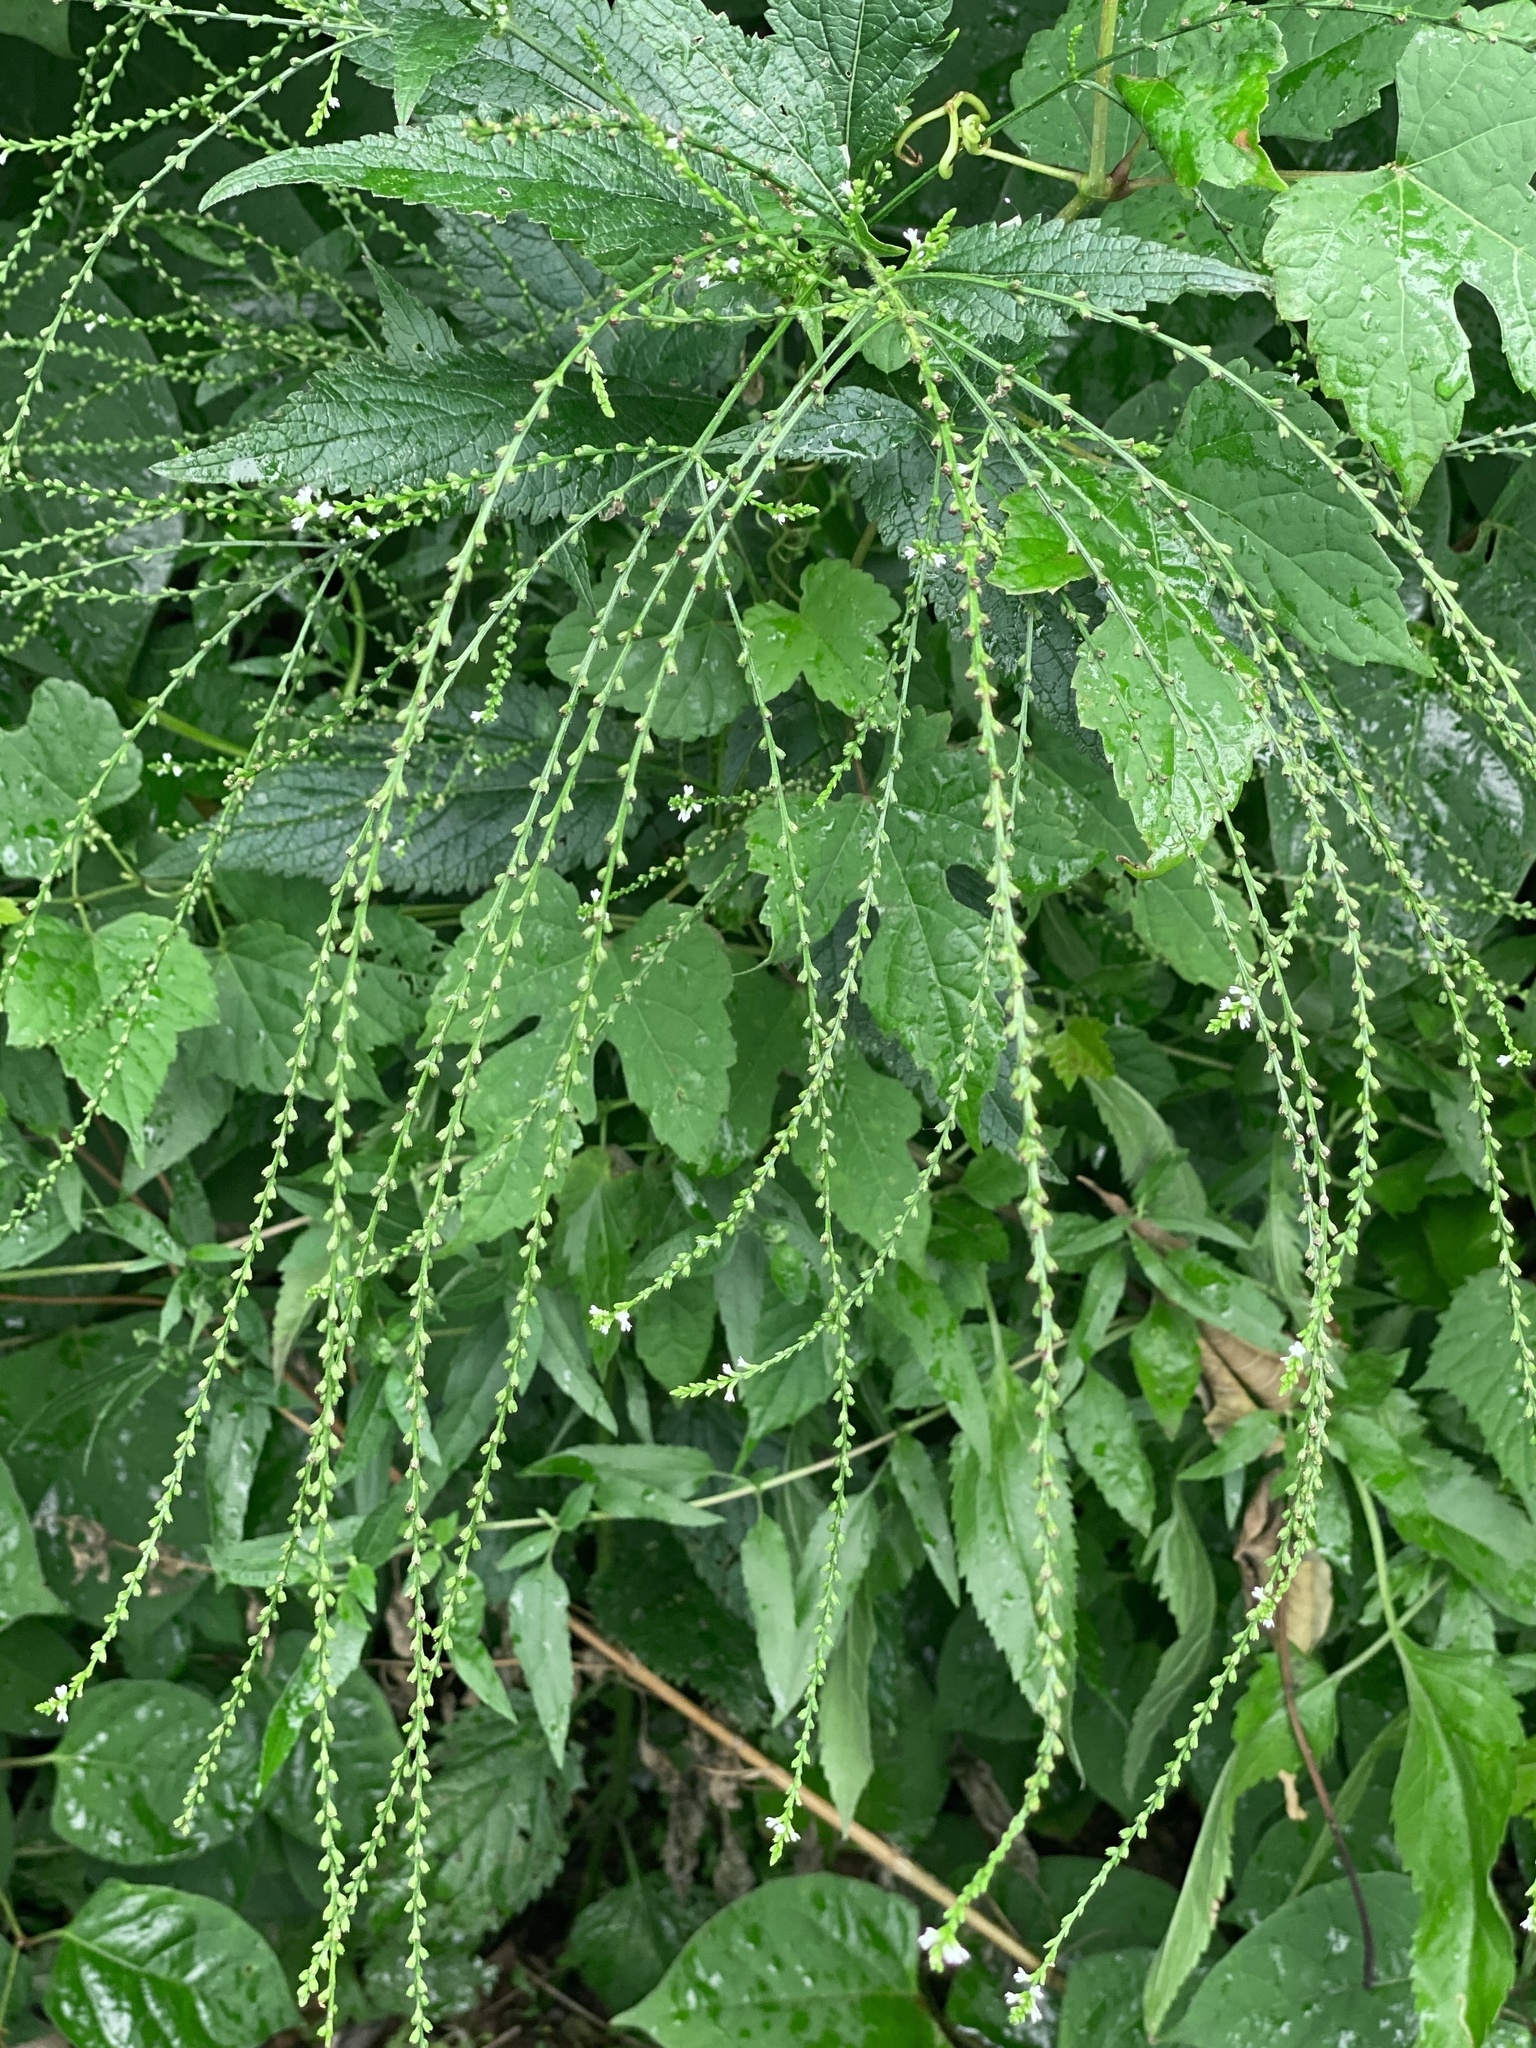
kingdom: Plantae
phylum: Tracheophyta
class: Magnoliopsida
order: Lamiales
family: Verbenaceae
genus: Verbena
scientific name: Verbena urticifolia
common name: Nettle-leaved vervain
